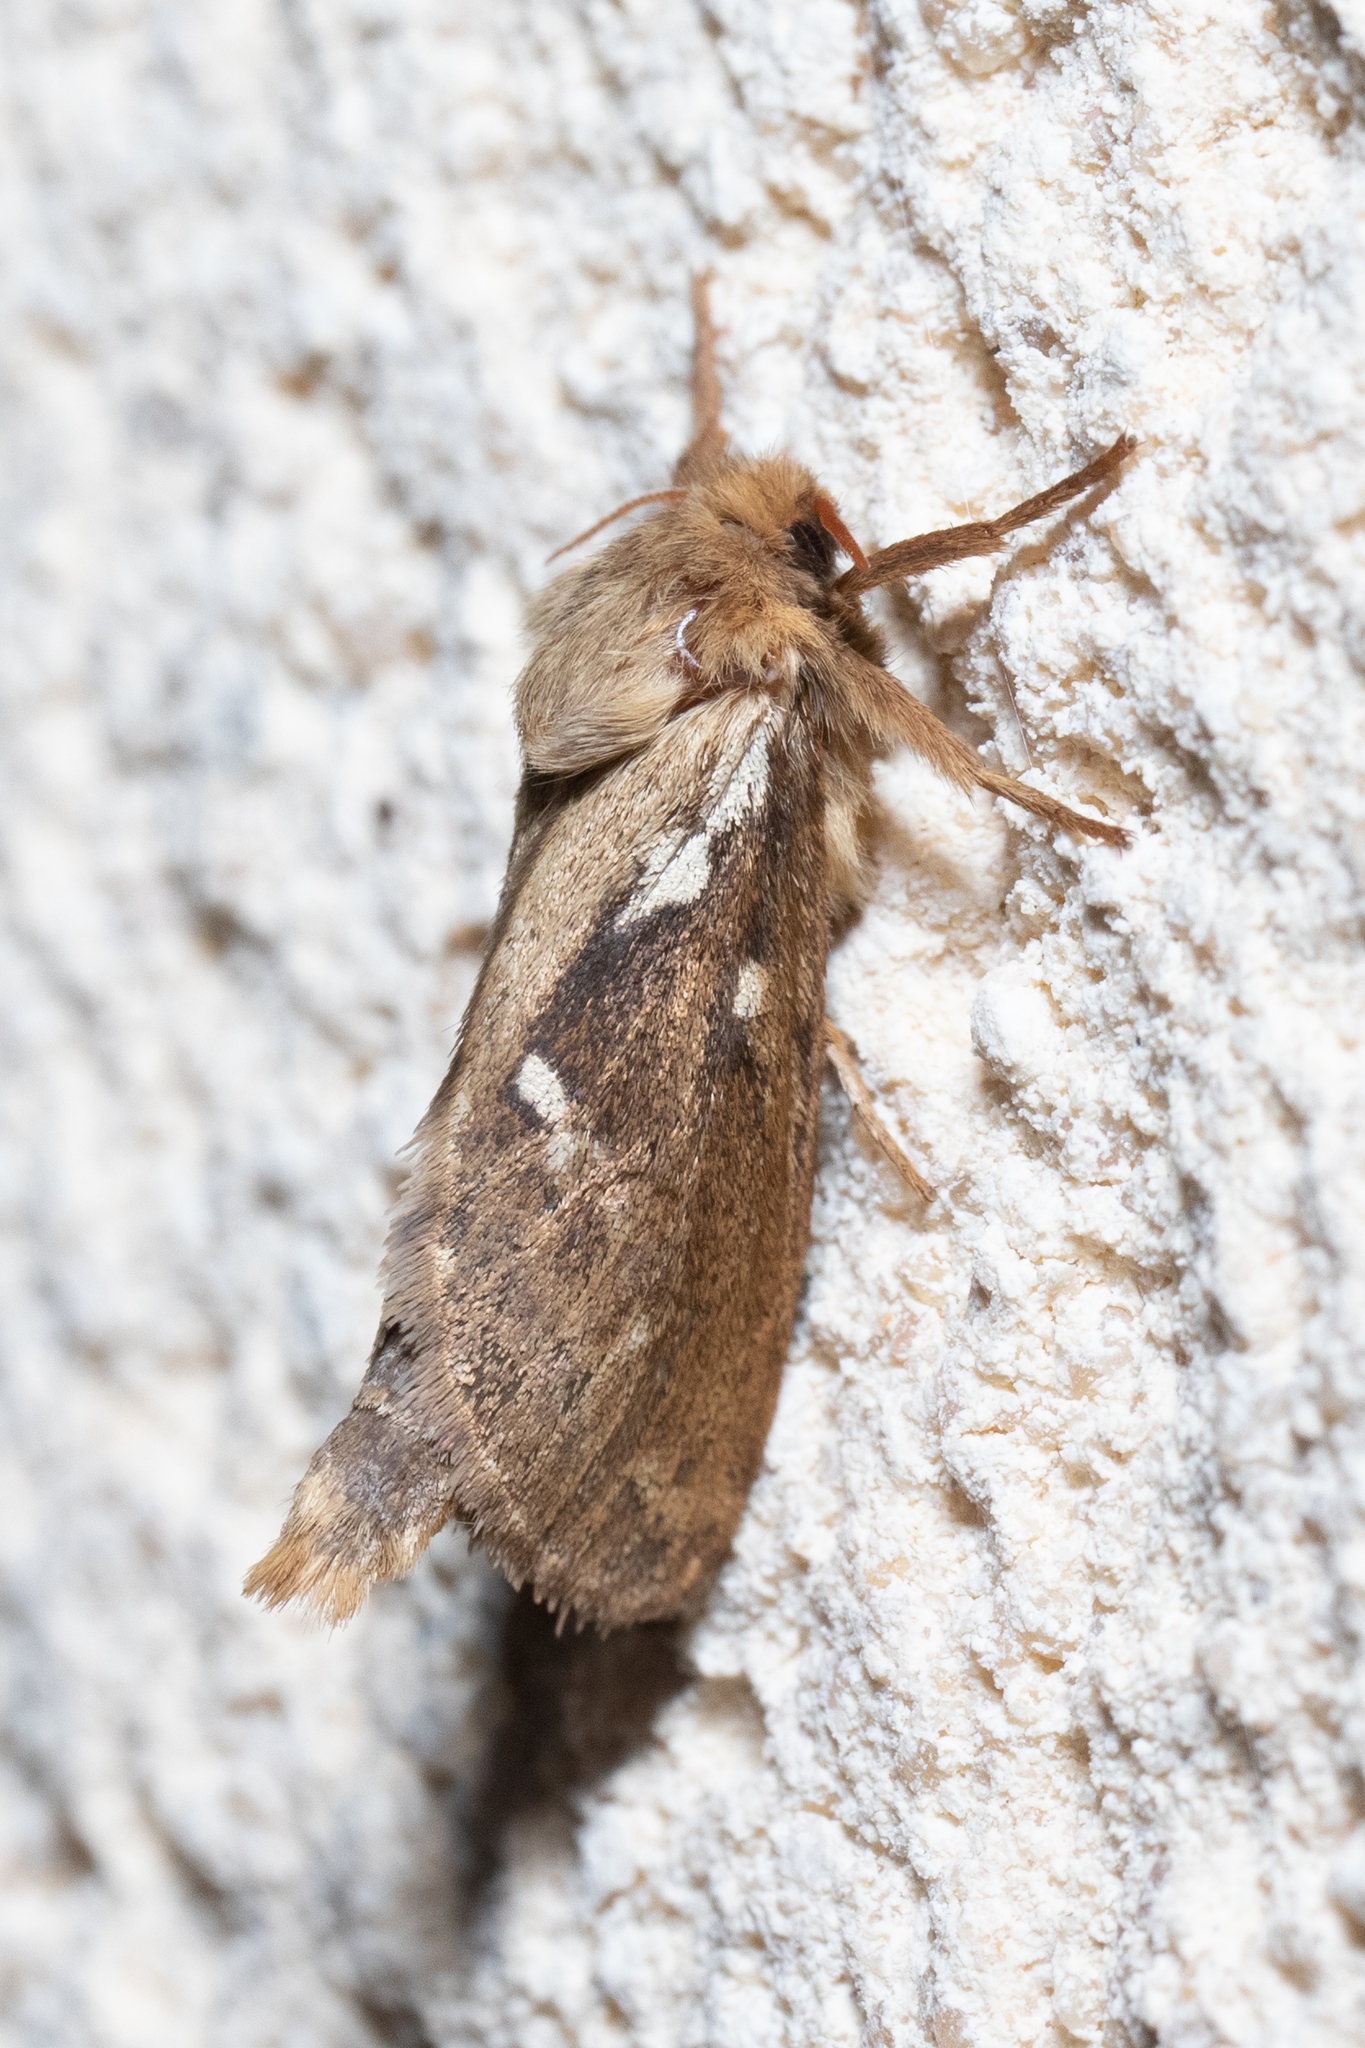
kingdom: Animalia
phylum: Arthropoda
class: Insecta
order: Lepidoptera
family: Hepialidae
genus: Korscheltellus
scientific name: Korscheltellus lupulina
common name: Common swift
